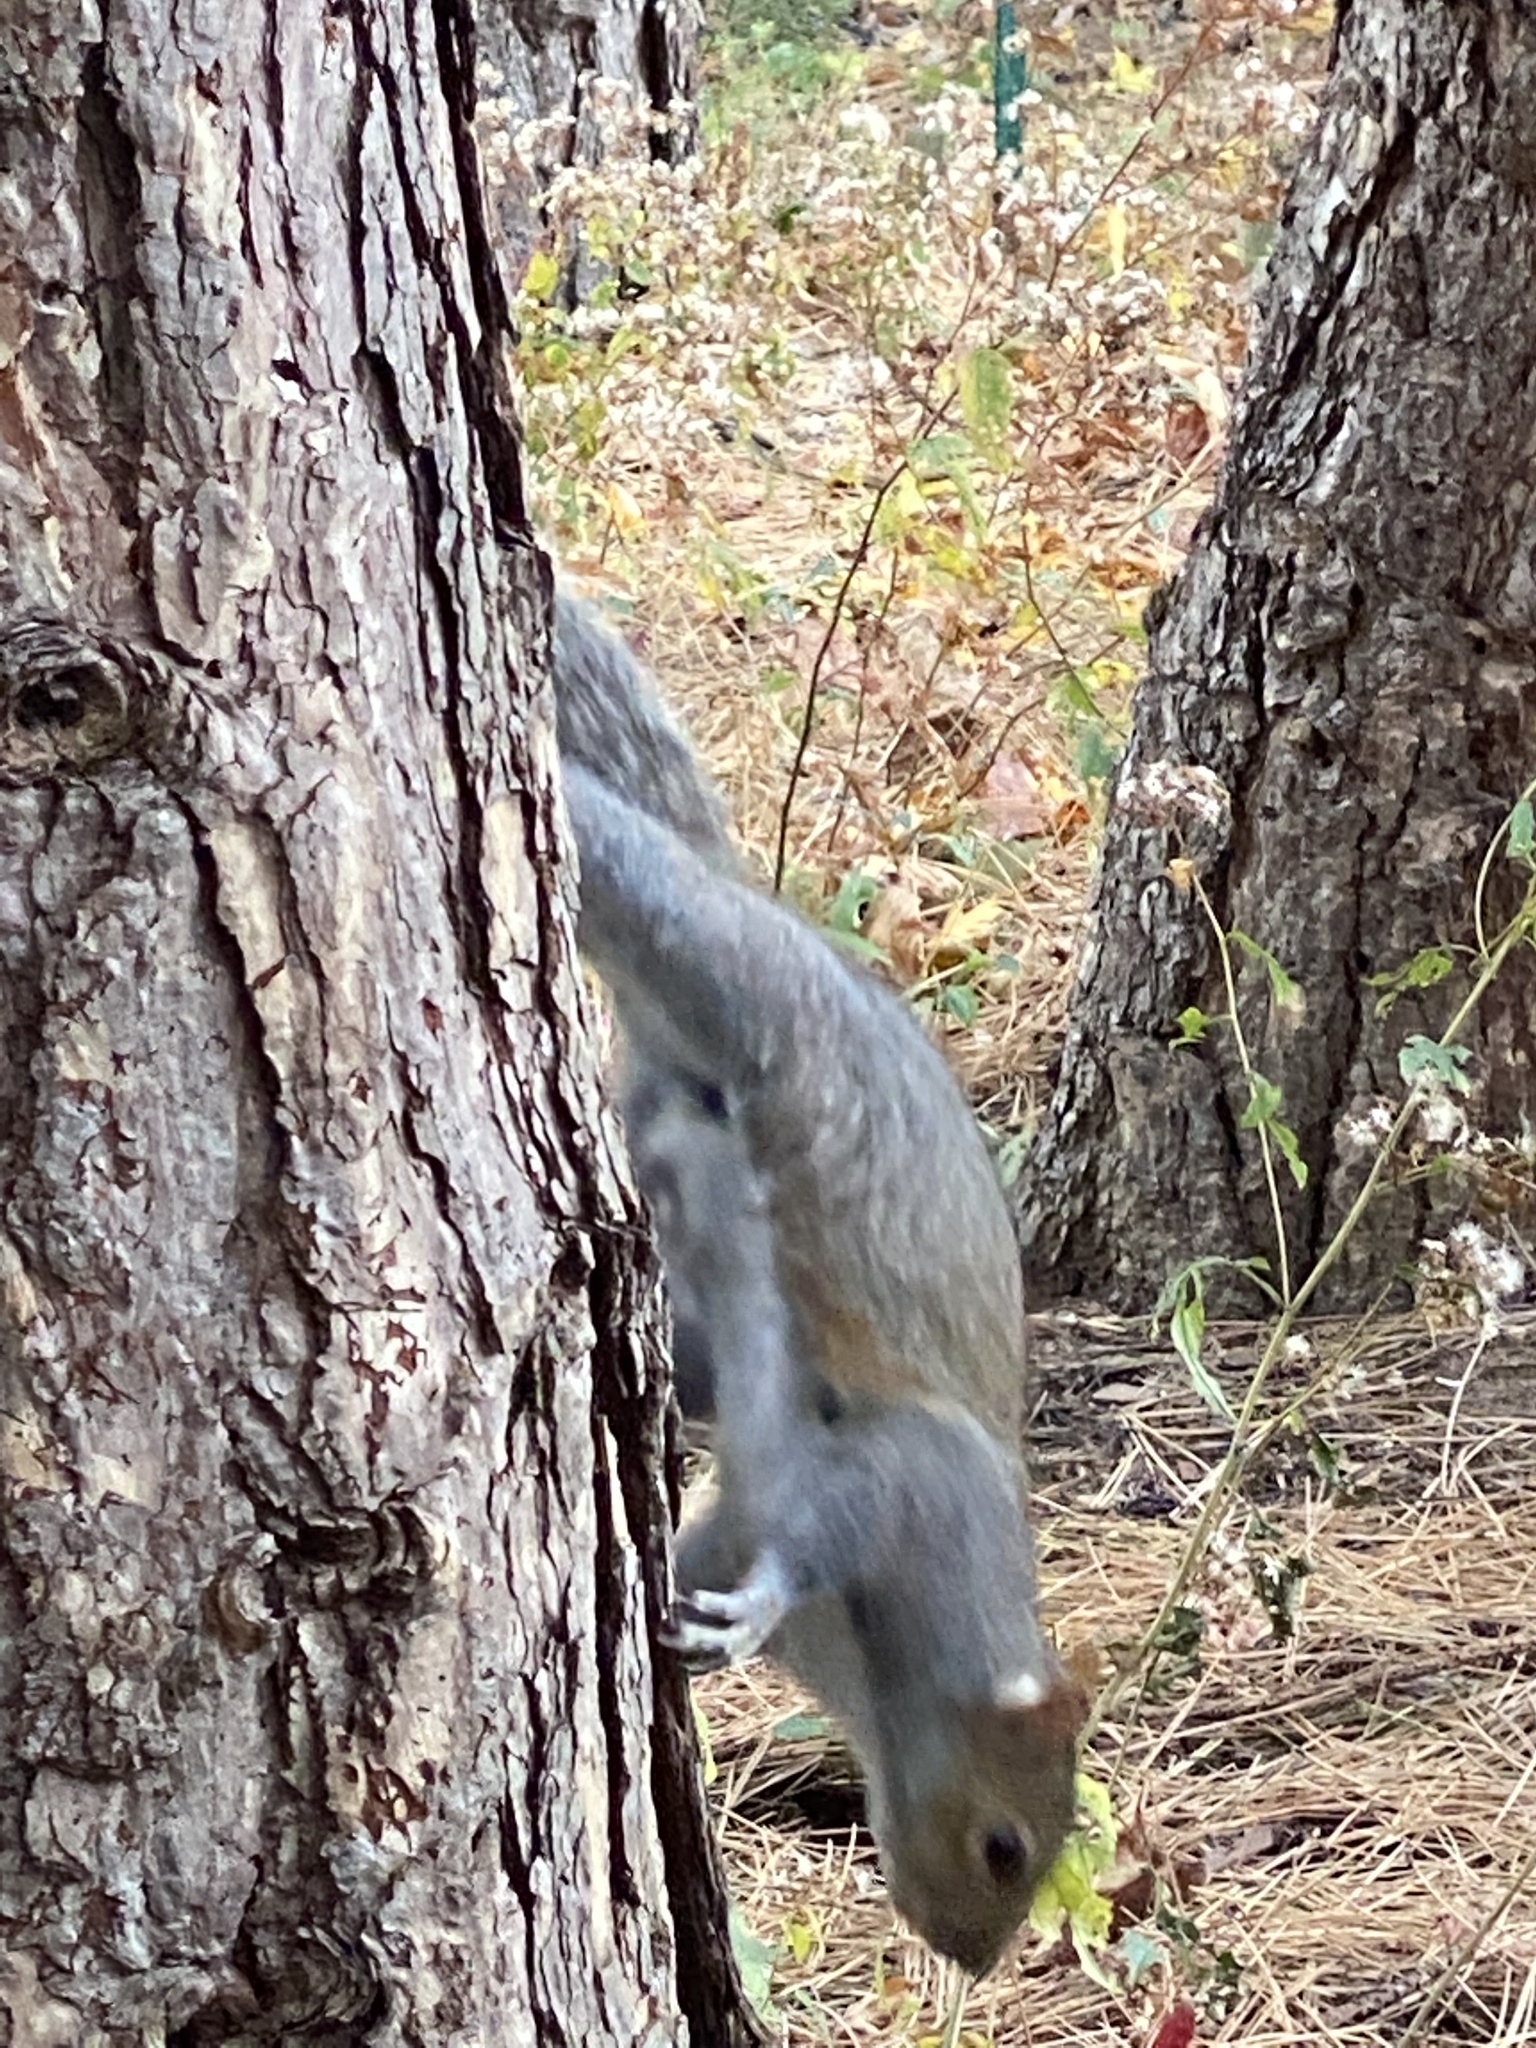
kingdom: Animalia
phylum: Chordata
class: Mammalia
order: Rodentia
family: Sciuridae
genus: Sciurus
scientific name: Sciurus carolinensis
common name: Eastern gray squirrel
